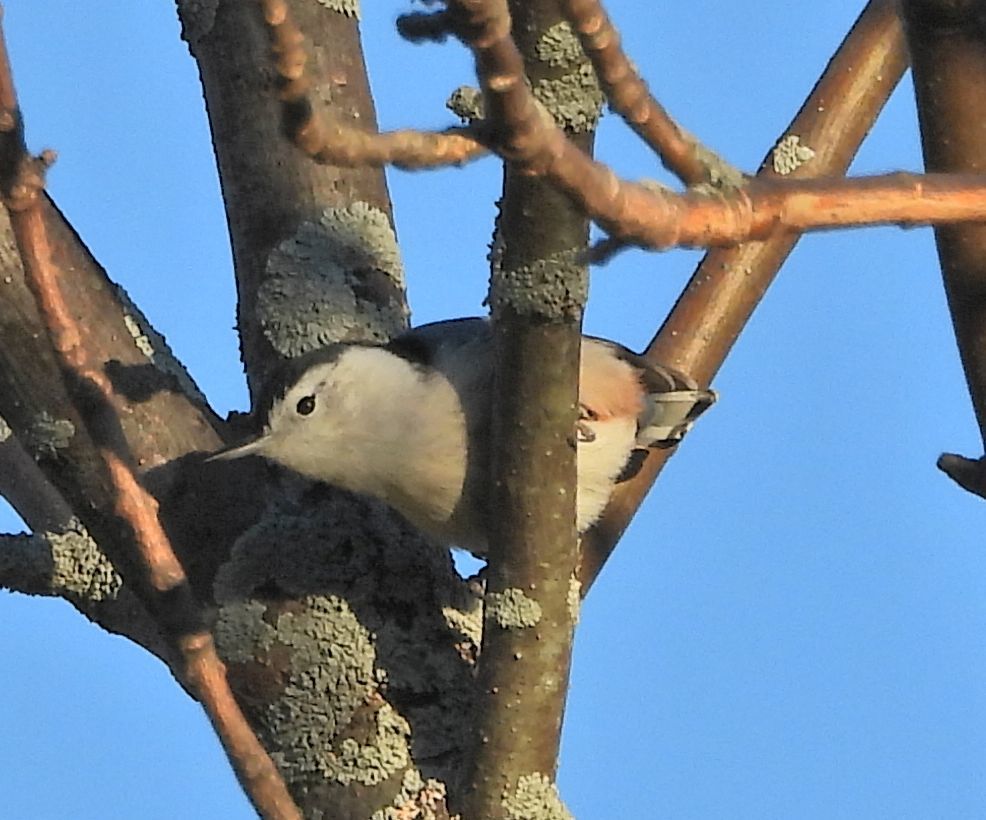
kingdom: Animalia
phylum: Chordata
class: Aves
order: Passeriformes
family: Sittidae
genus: Sitta
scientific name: Sitta carolinensis
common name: White-breasted nuthatch
